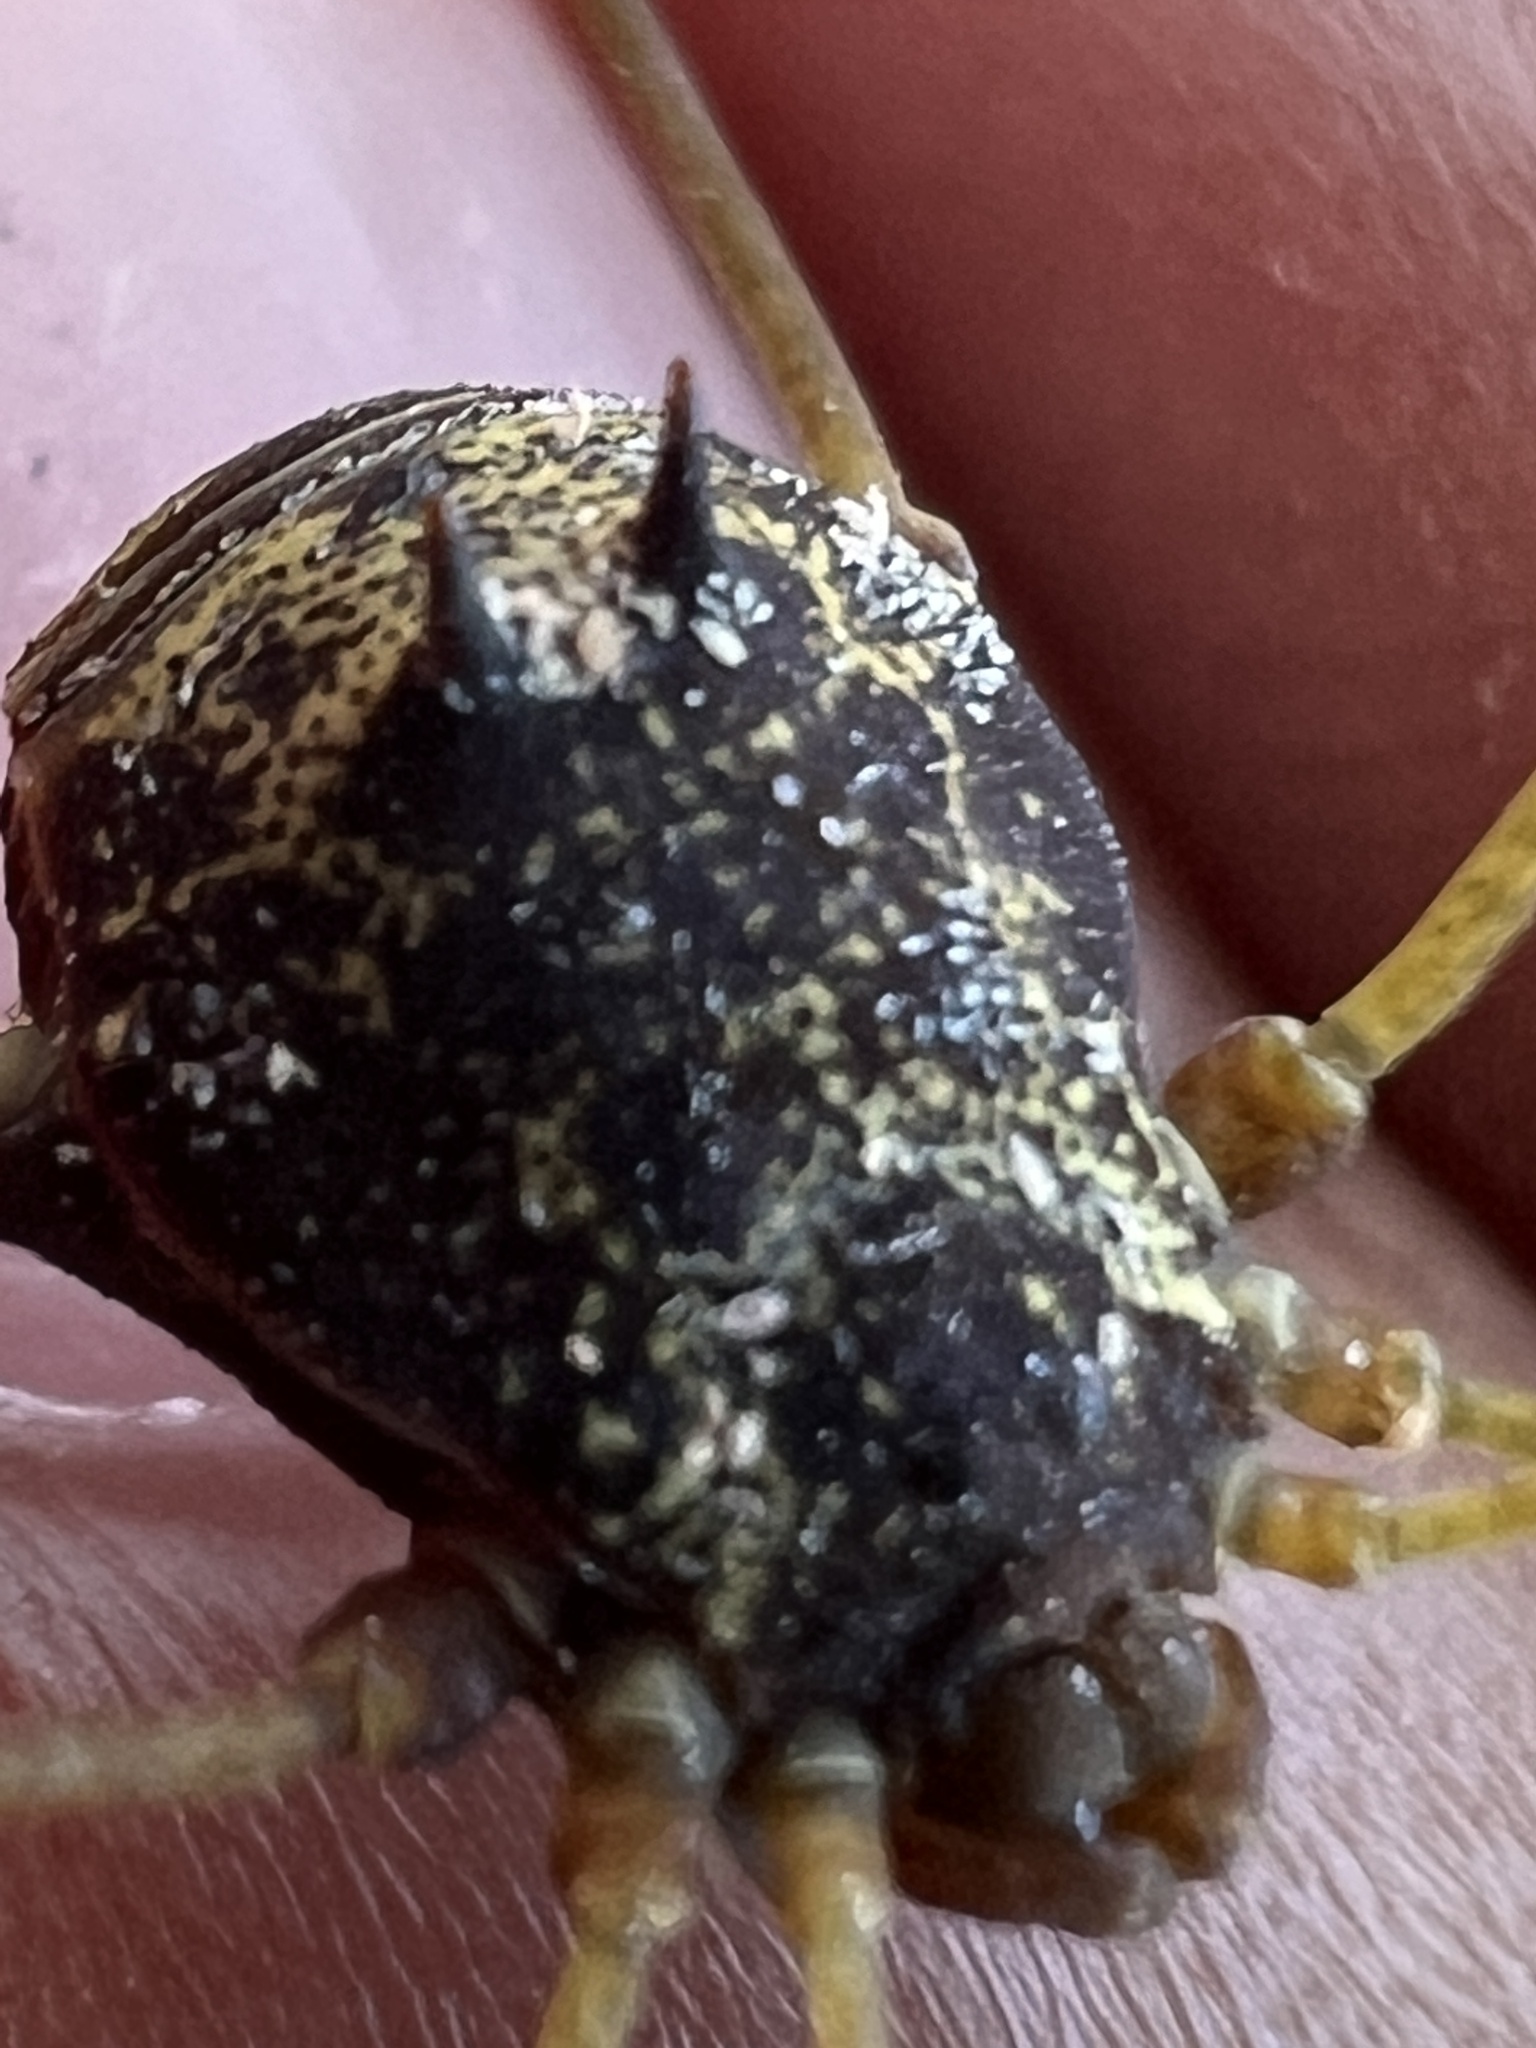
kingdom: Animalia
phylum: Arthropoda
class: Arachnida
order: Opiliones
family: Cosmetidae
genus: Gryne
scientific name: Gryne orensis
